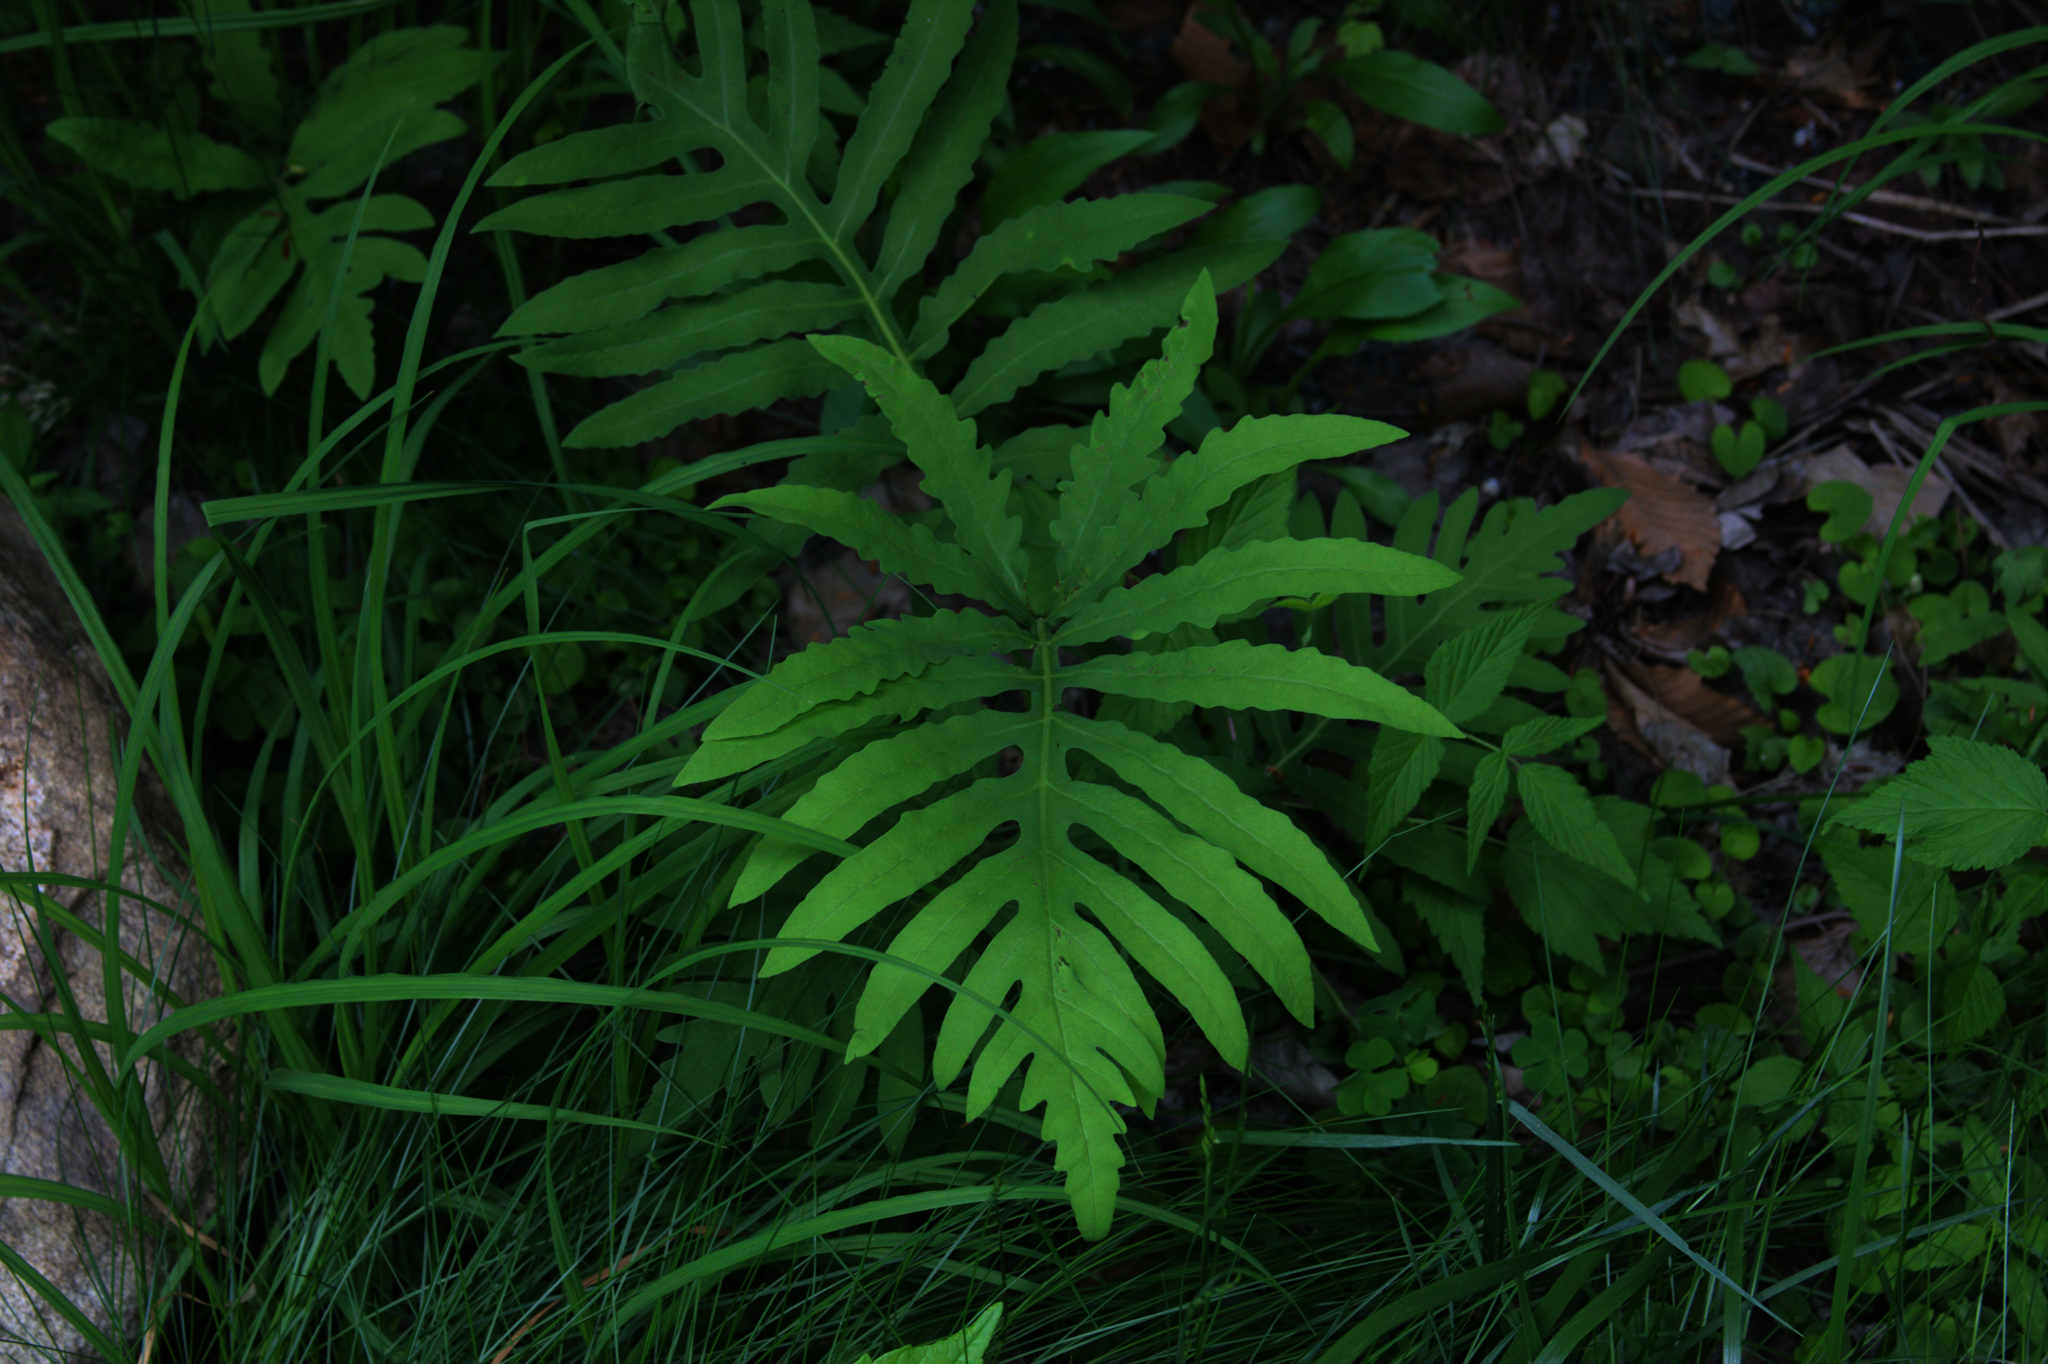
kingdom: Plantae
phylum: Tracheophyta
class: Polypodiopsida
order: Polypodiales
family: Onocleaceae
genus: Onoclea
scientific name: Onoclea sensibilis
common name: Sensitive fern
